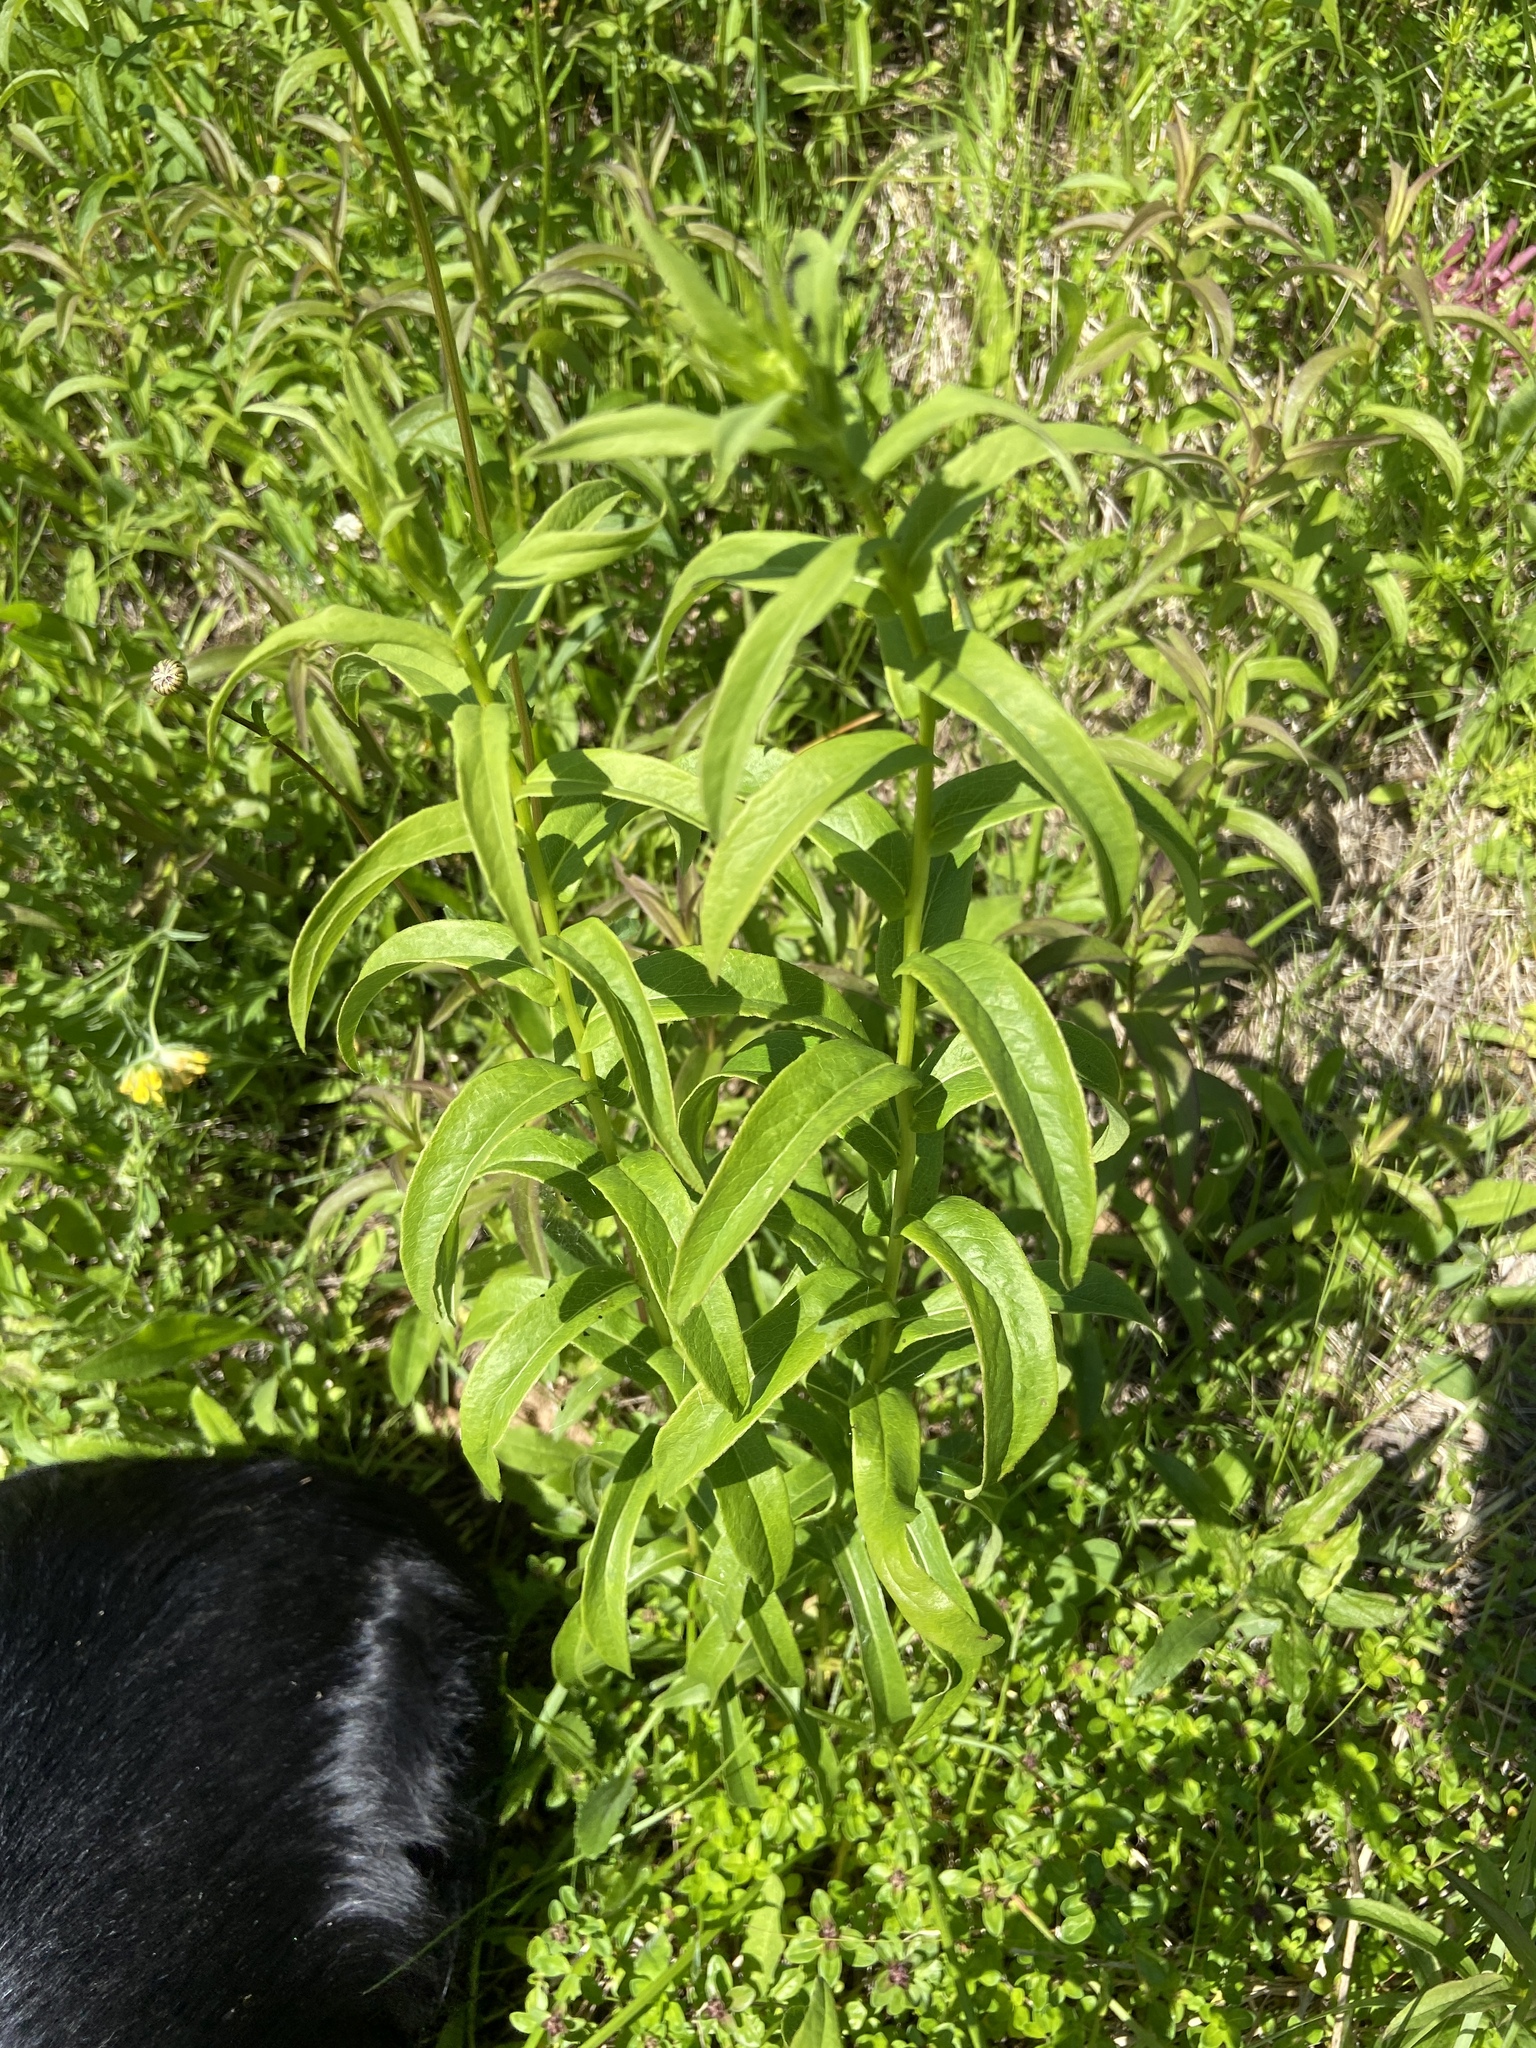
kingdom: Plantae
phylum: Tracheophyta
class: Magnoliopsida
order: Asterales
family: Asteraceae
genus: Pentanema
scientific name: Pentanema salicinum
